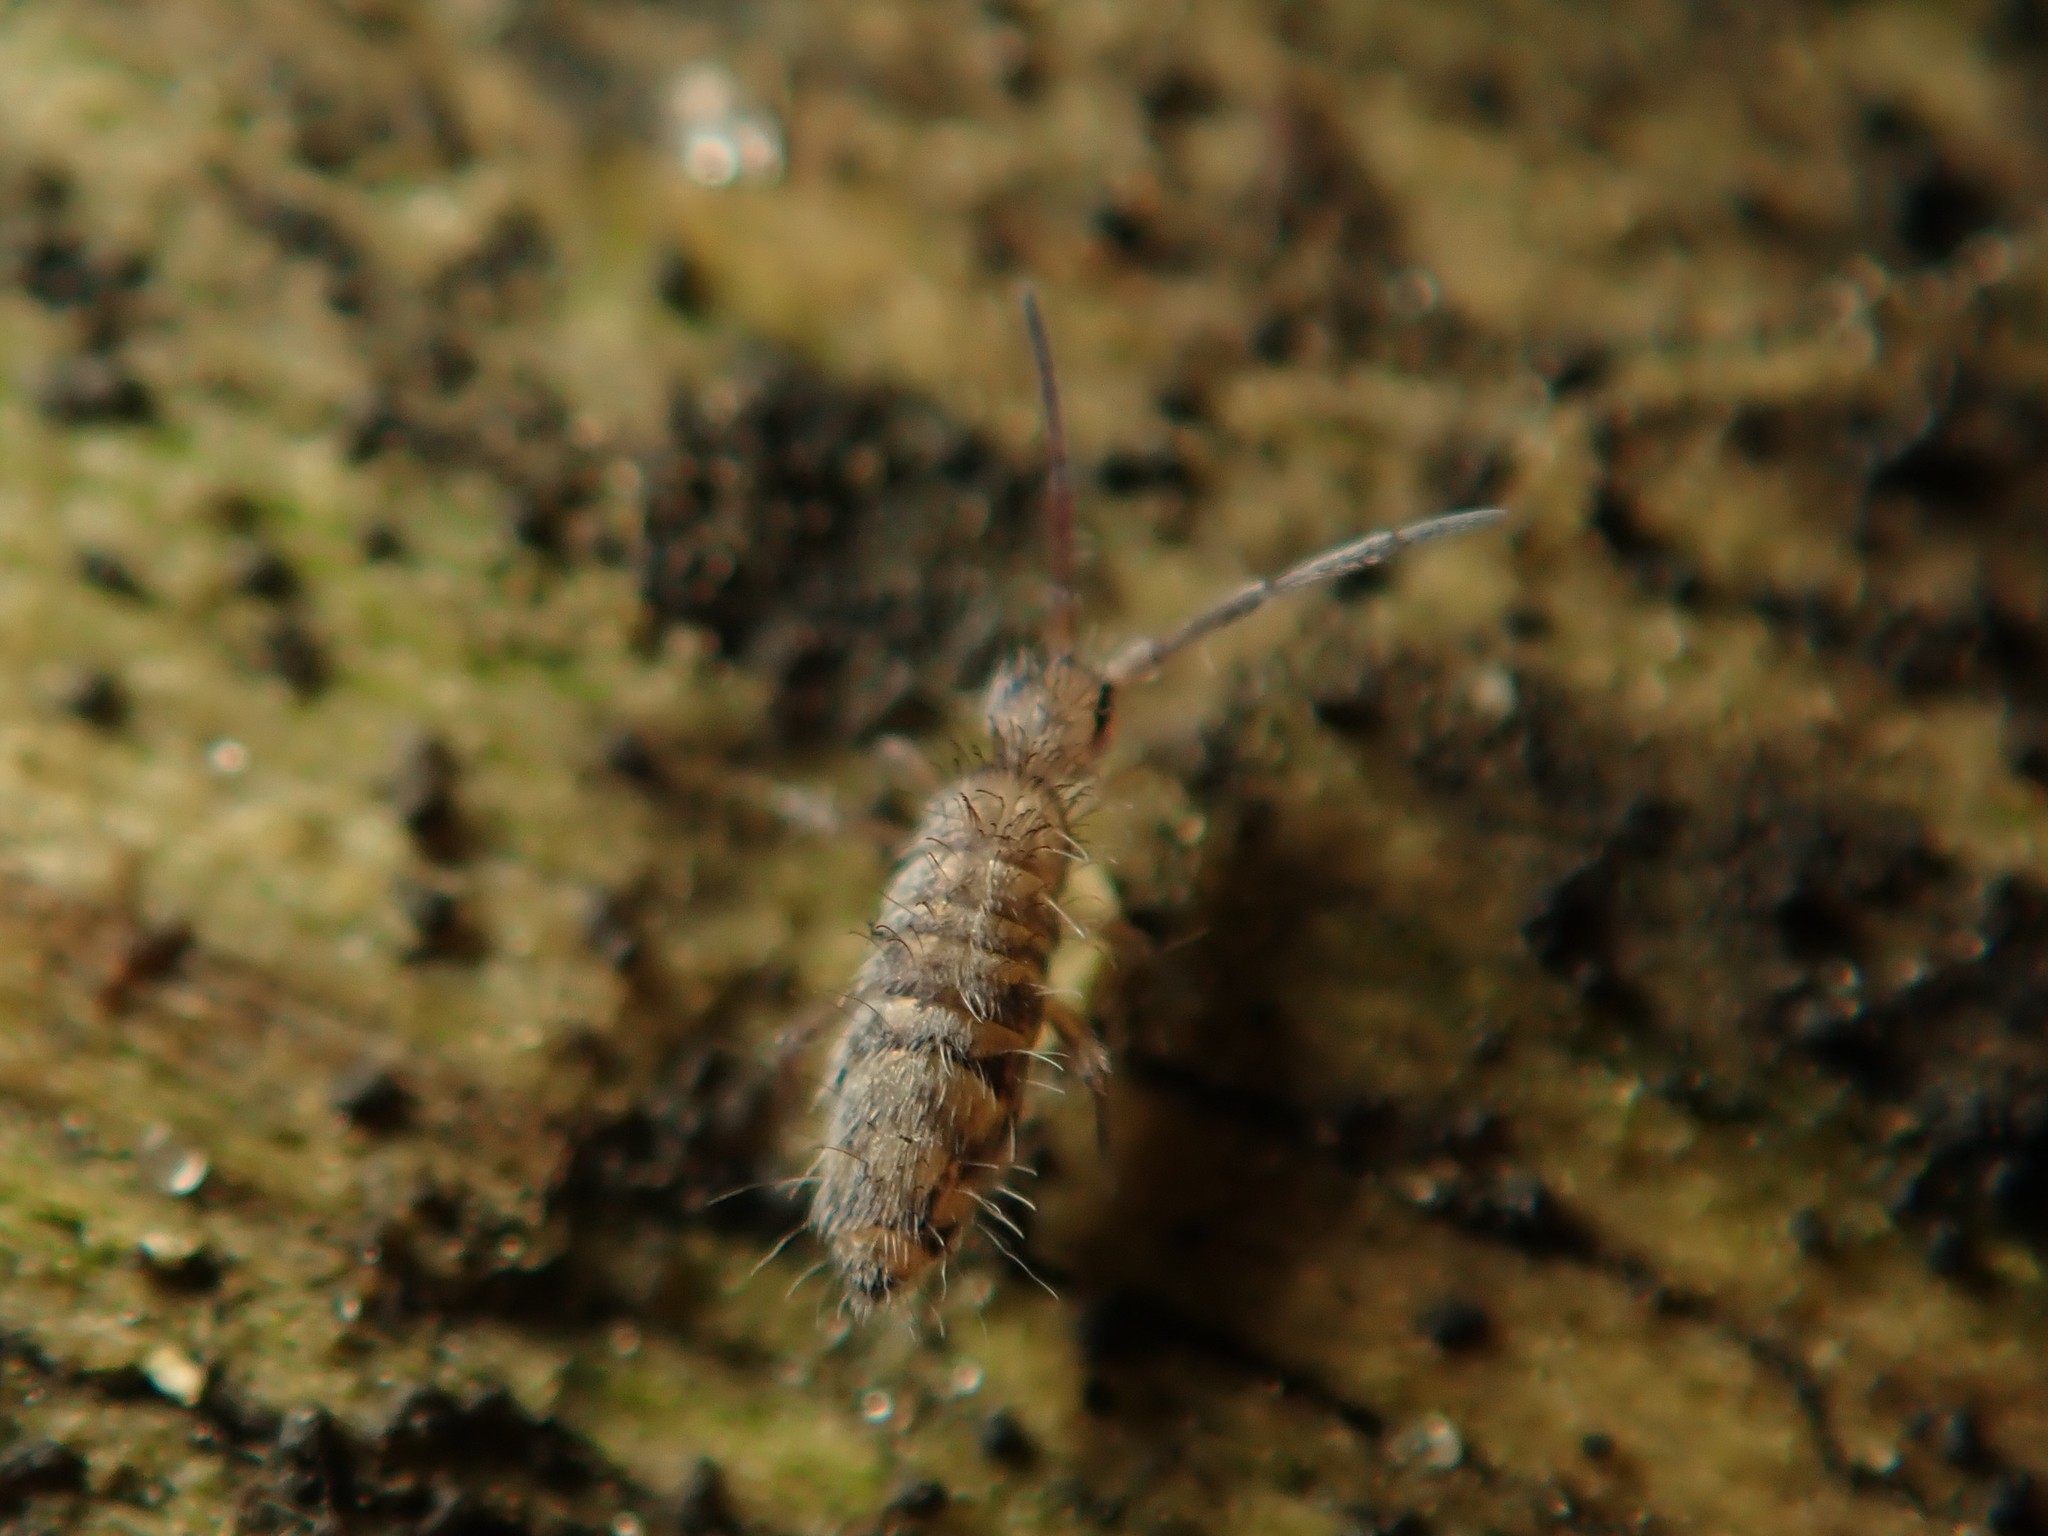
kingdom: Animalia
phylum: Arthropoda
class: Collembola
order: Entomobryomorpha
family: Entomobryidae
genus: Entomobrya
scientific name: Entomobrya multifasciata
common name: Springtail
